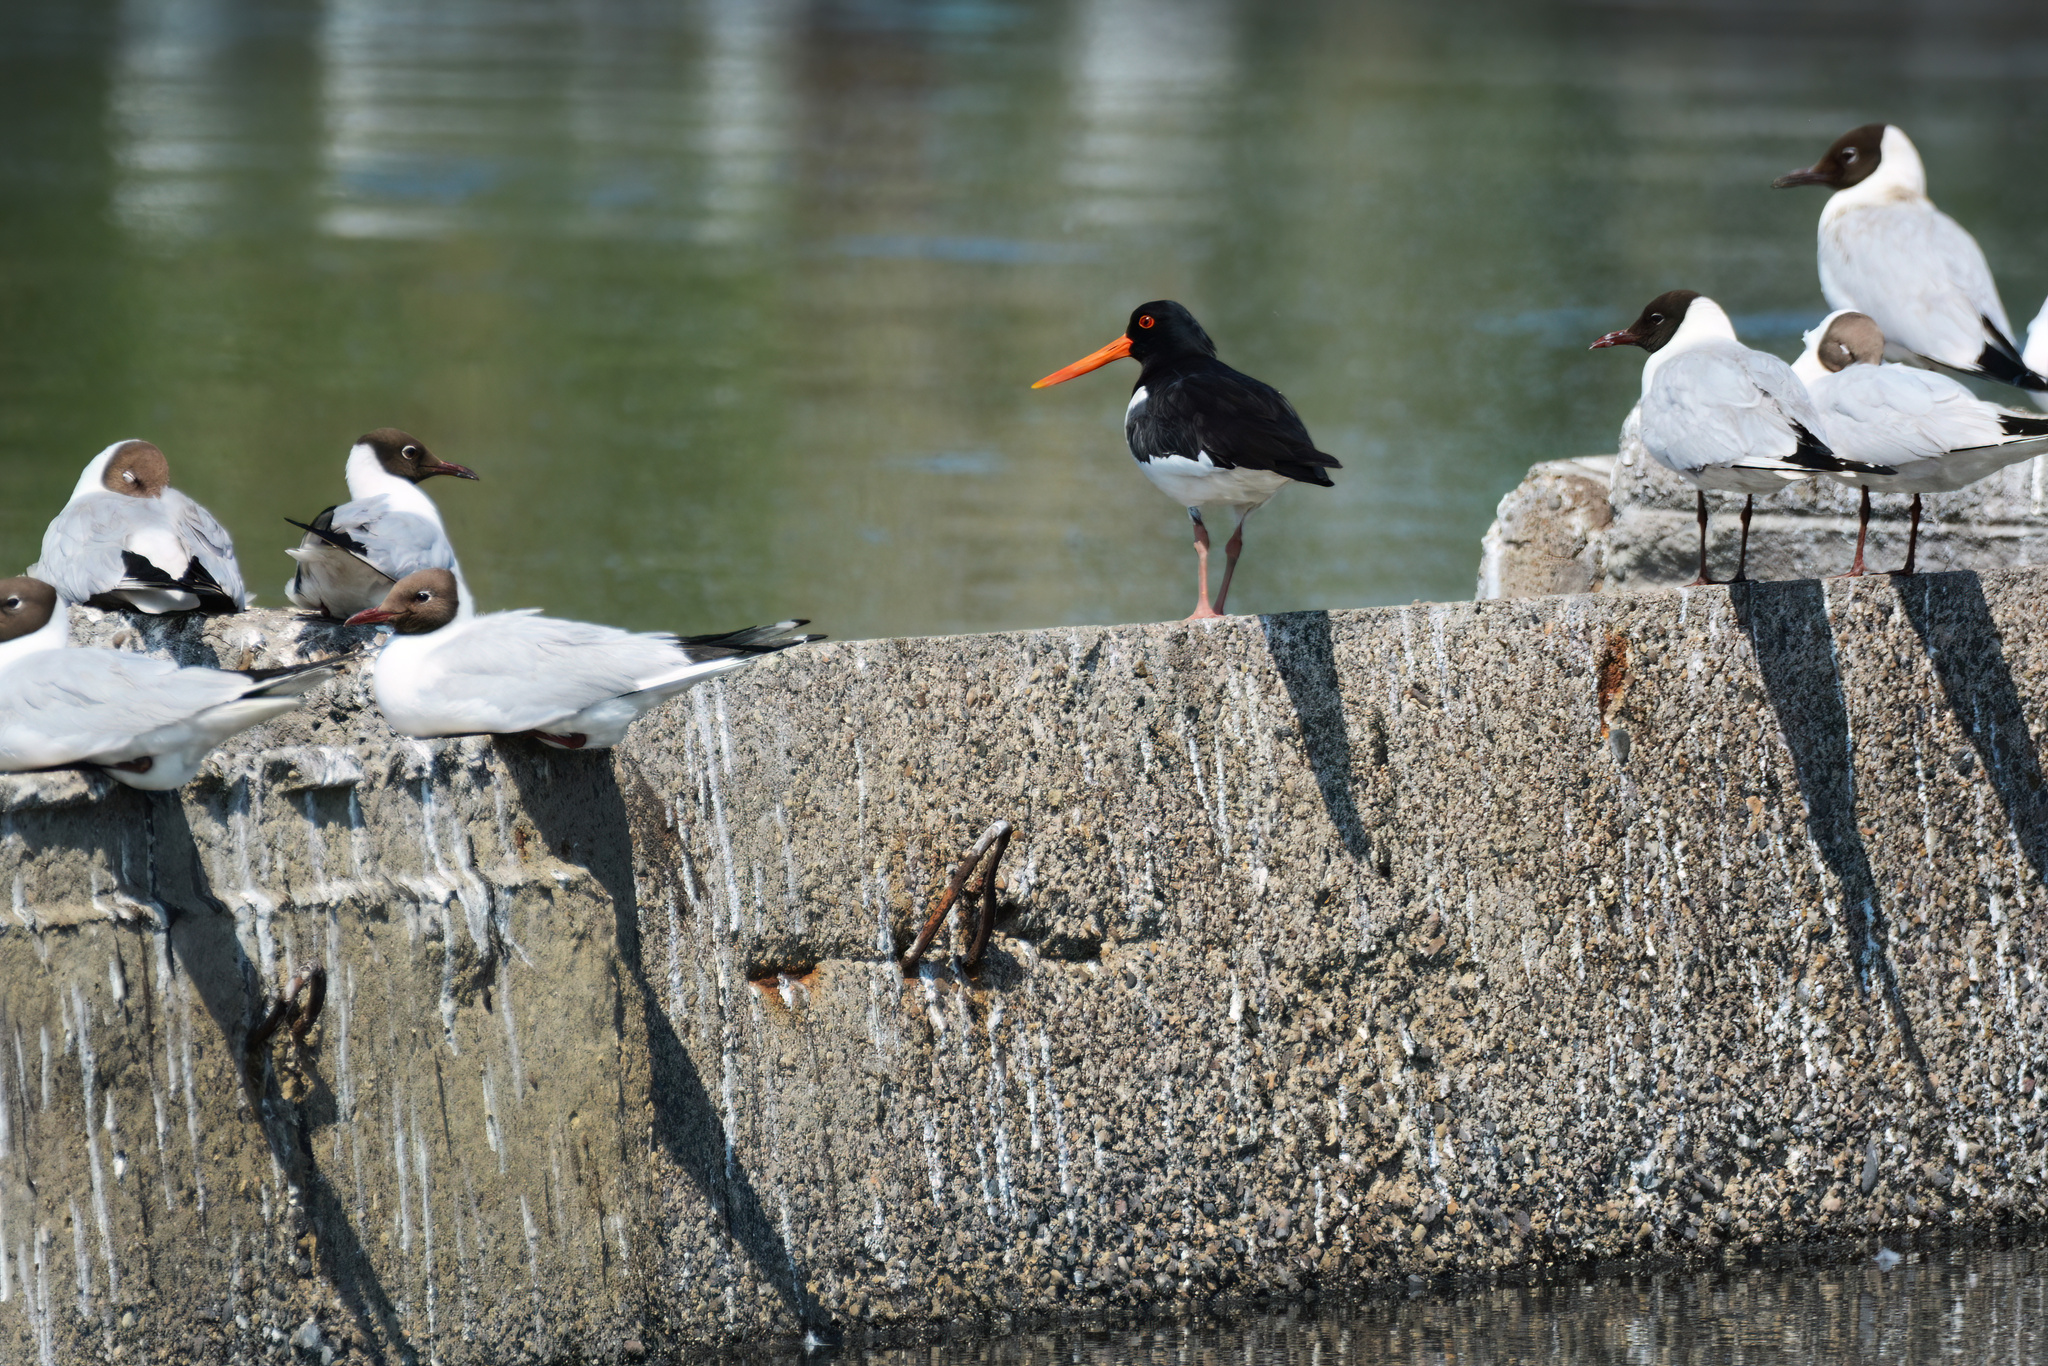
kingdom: Animalia
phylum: Chordata
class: Aves
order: Charadriiformes
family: Haematopodidae
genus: Haematopus
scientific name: Haematopus ostralegus
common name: Eurasian oystercatcher
